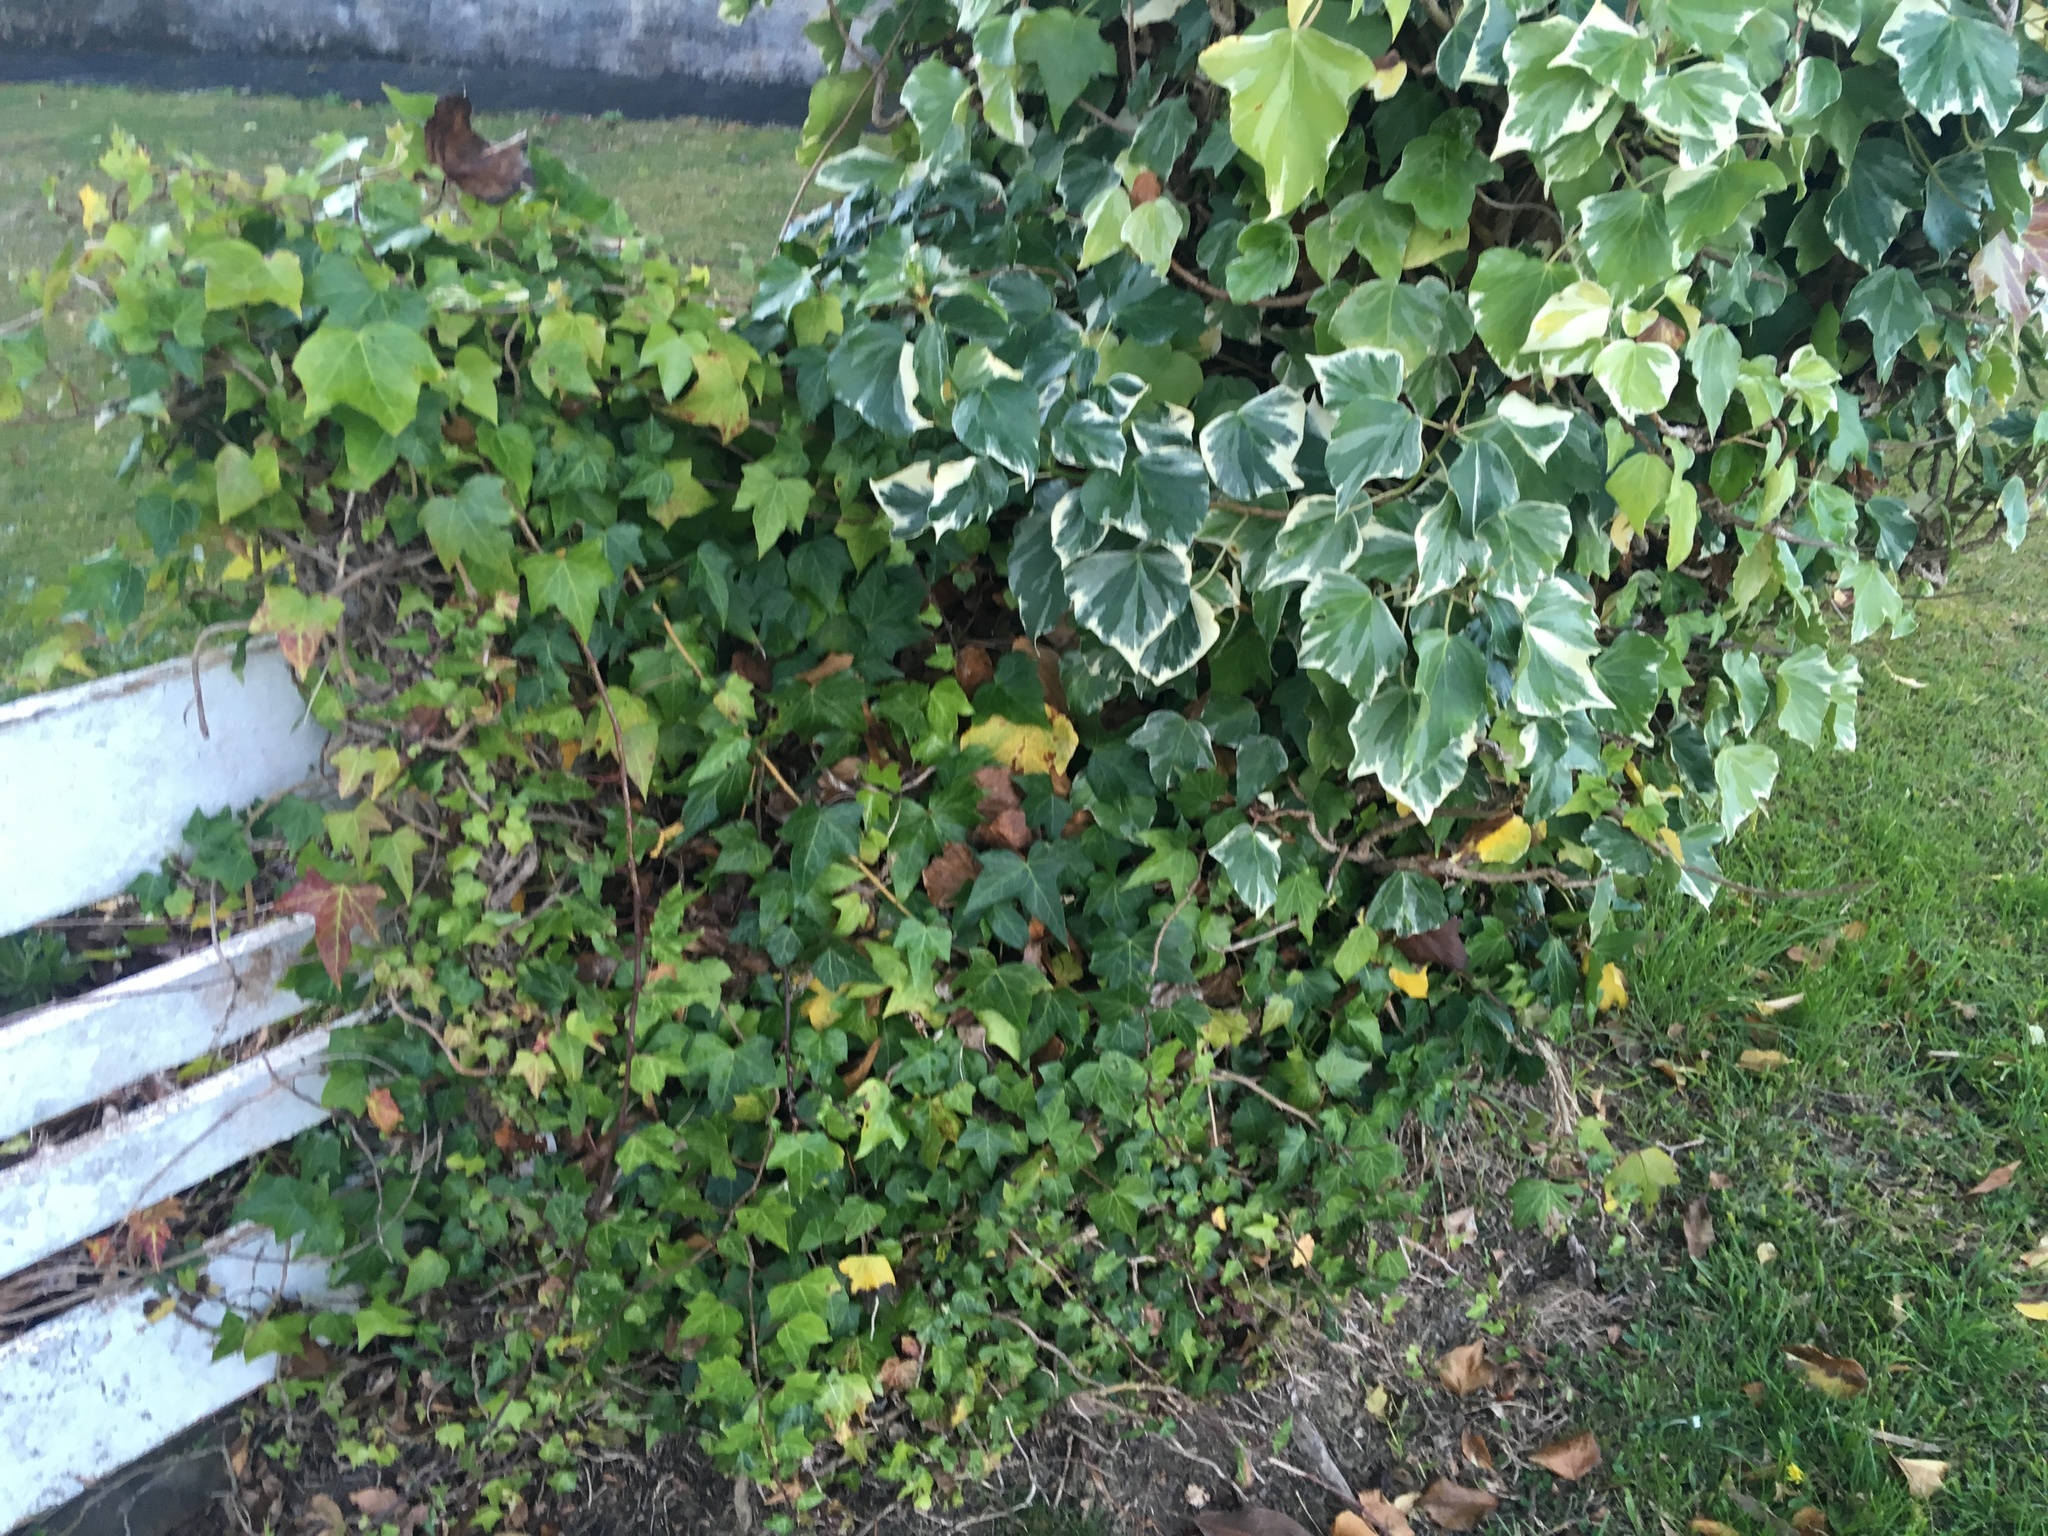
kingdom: Plantae
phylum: Tracheophyta
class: Magnoliopsida
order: Apiales
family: Araliaceae
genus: Hedera
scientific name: Hedera helix
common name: Ivy
